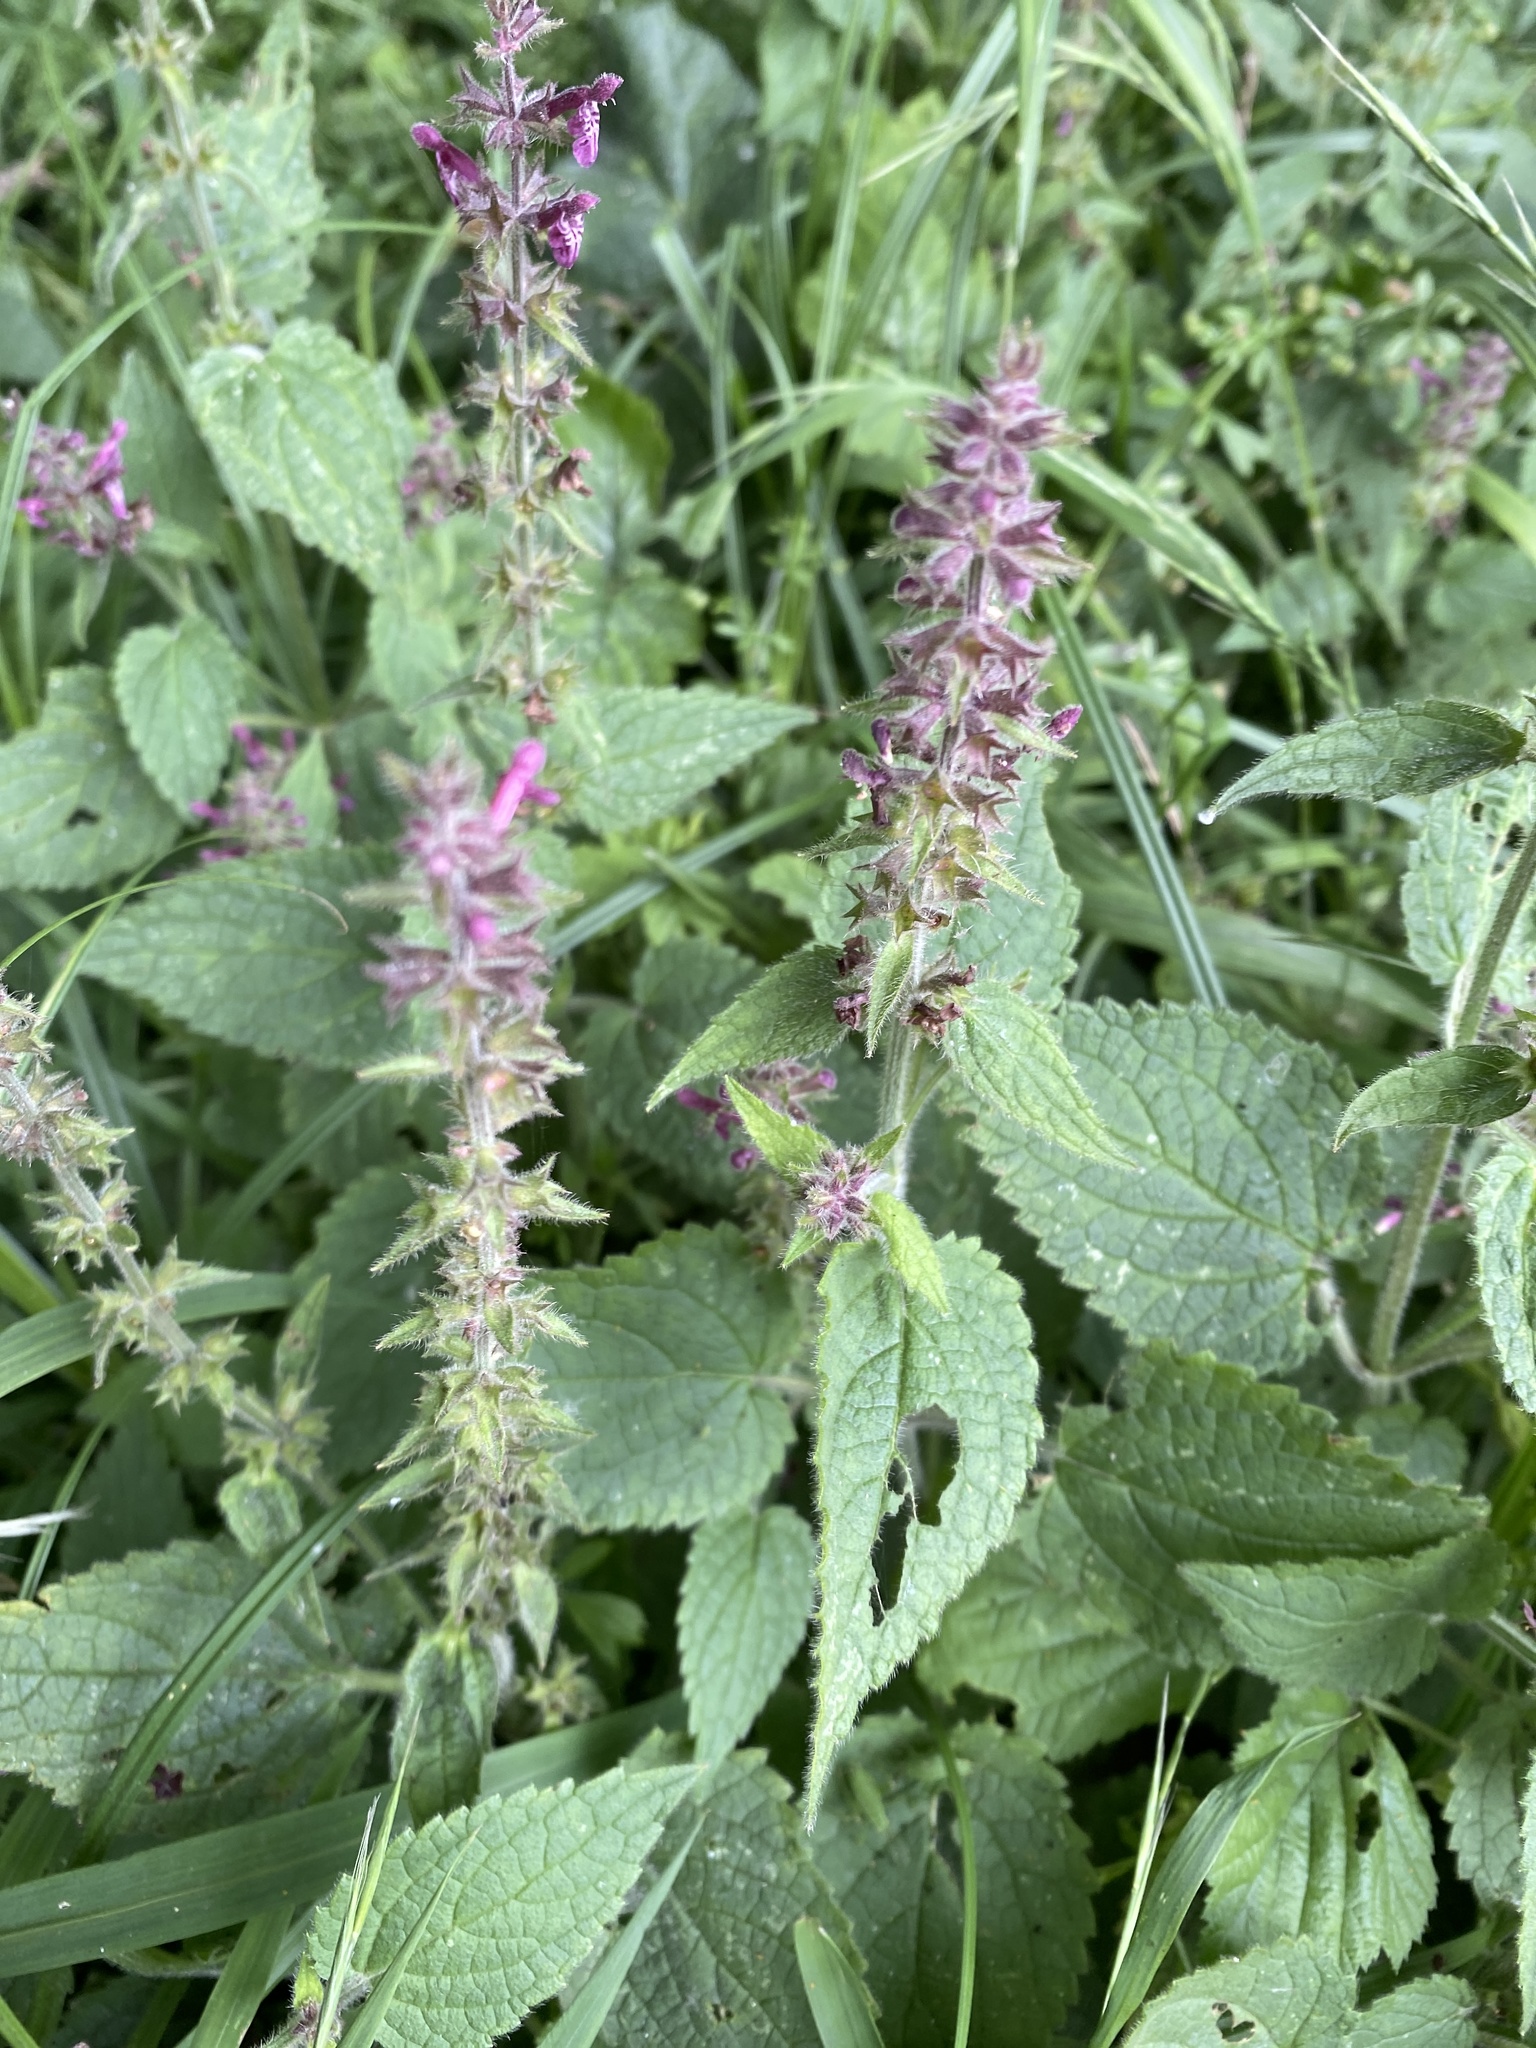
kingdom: Plantae
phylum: Tracheophyta
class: Magnoliopsida
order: Lamiales
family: Lamiaceae
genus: Stachys
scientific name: Stachys sylvatica
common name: Hedge woundwort
